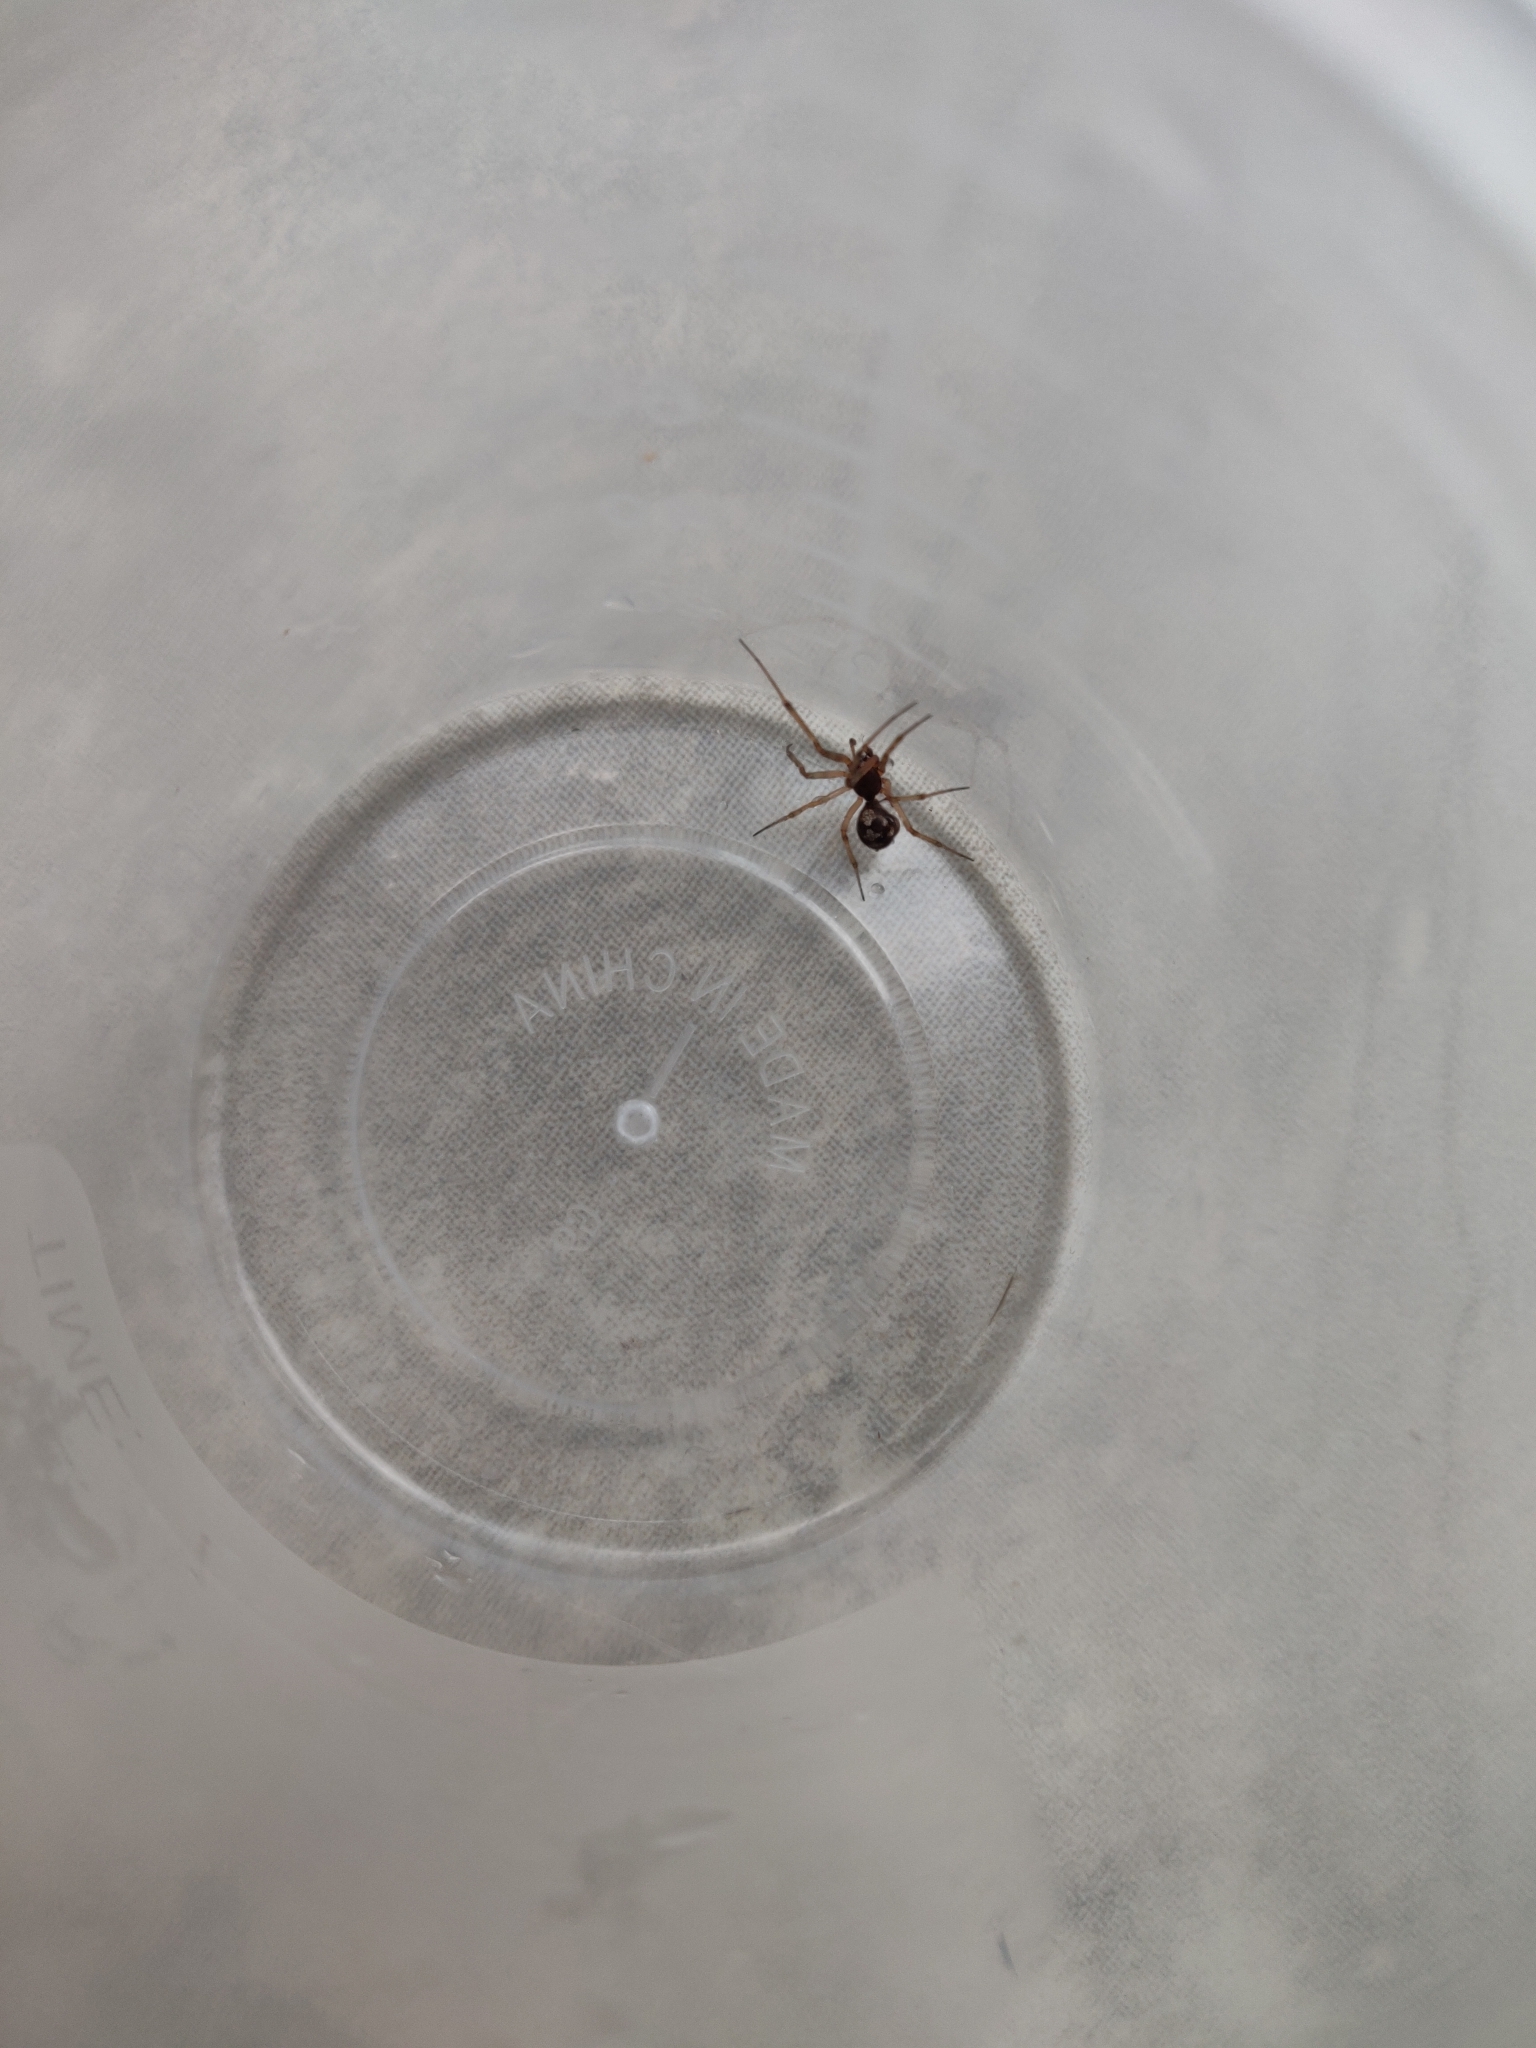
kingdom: Animalia
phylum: Arthropoda
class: Arachnida
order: Araneae
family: Theridiidae
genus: Steatoda
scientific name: Steatoda triangulosa
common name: Triangulate bud spider
